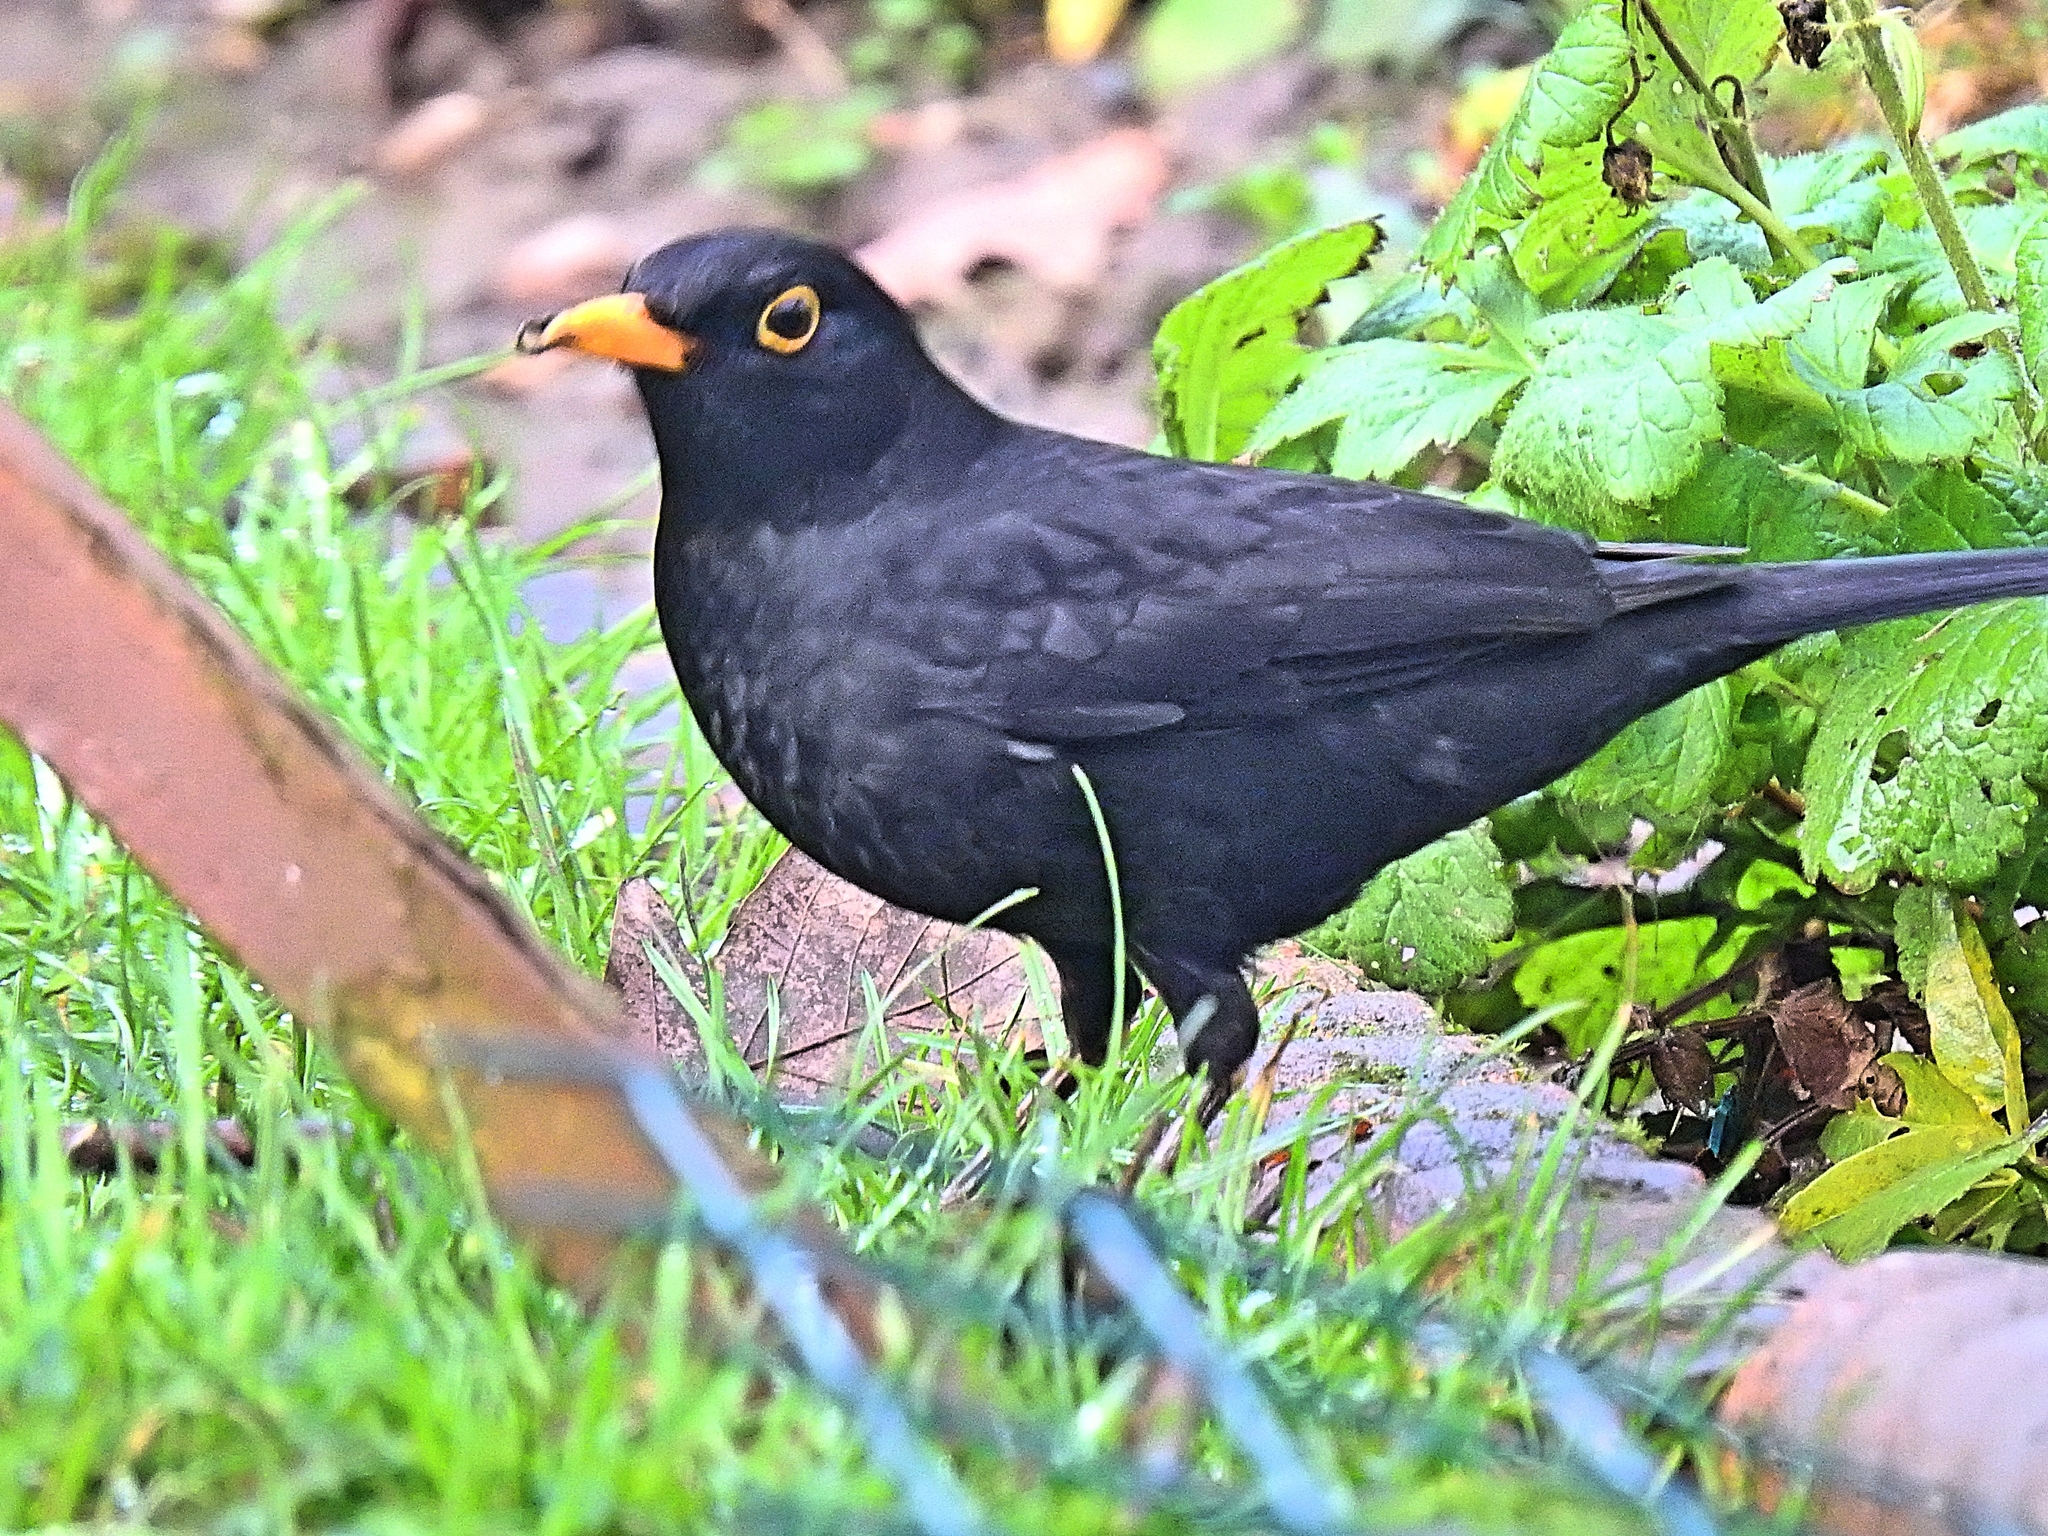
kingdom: Animalia
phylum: Chordata
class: Aves
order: Passeriformes
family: Turdidae
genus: Turdus
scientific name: Turdus merula
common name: Common blackbird
